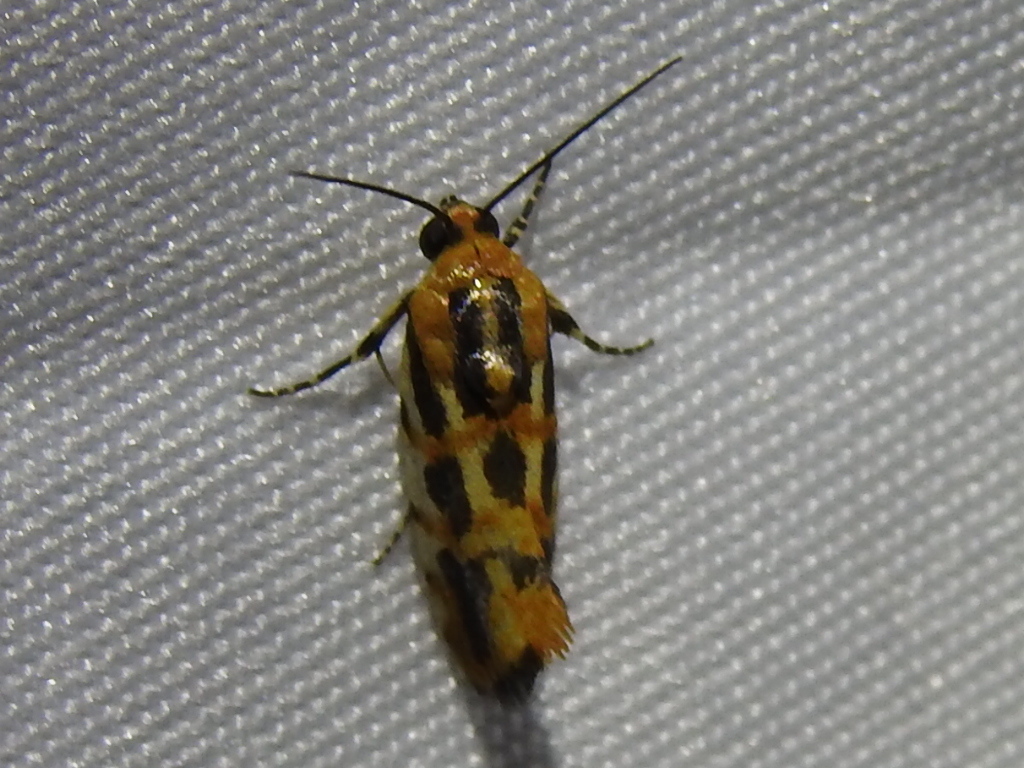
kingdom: Animalia
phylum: Arthropoda
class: Insecta
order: Lepidoptera
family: Noctuidae
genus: Acontia
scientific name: Acontia leo
